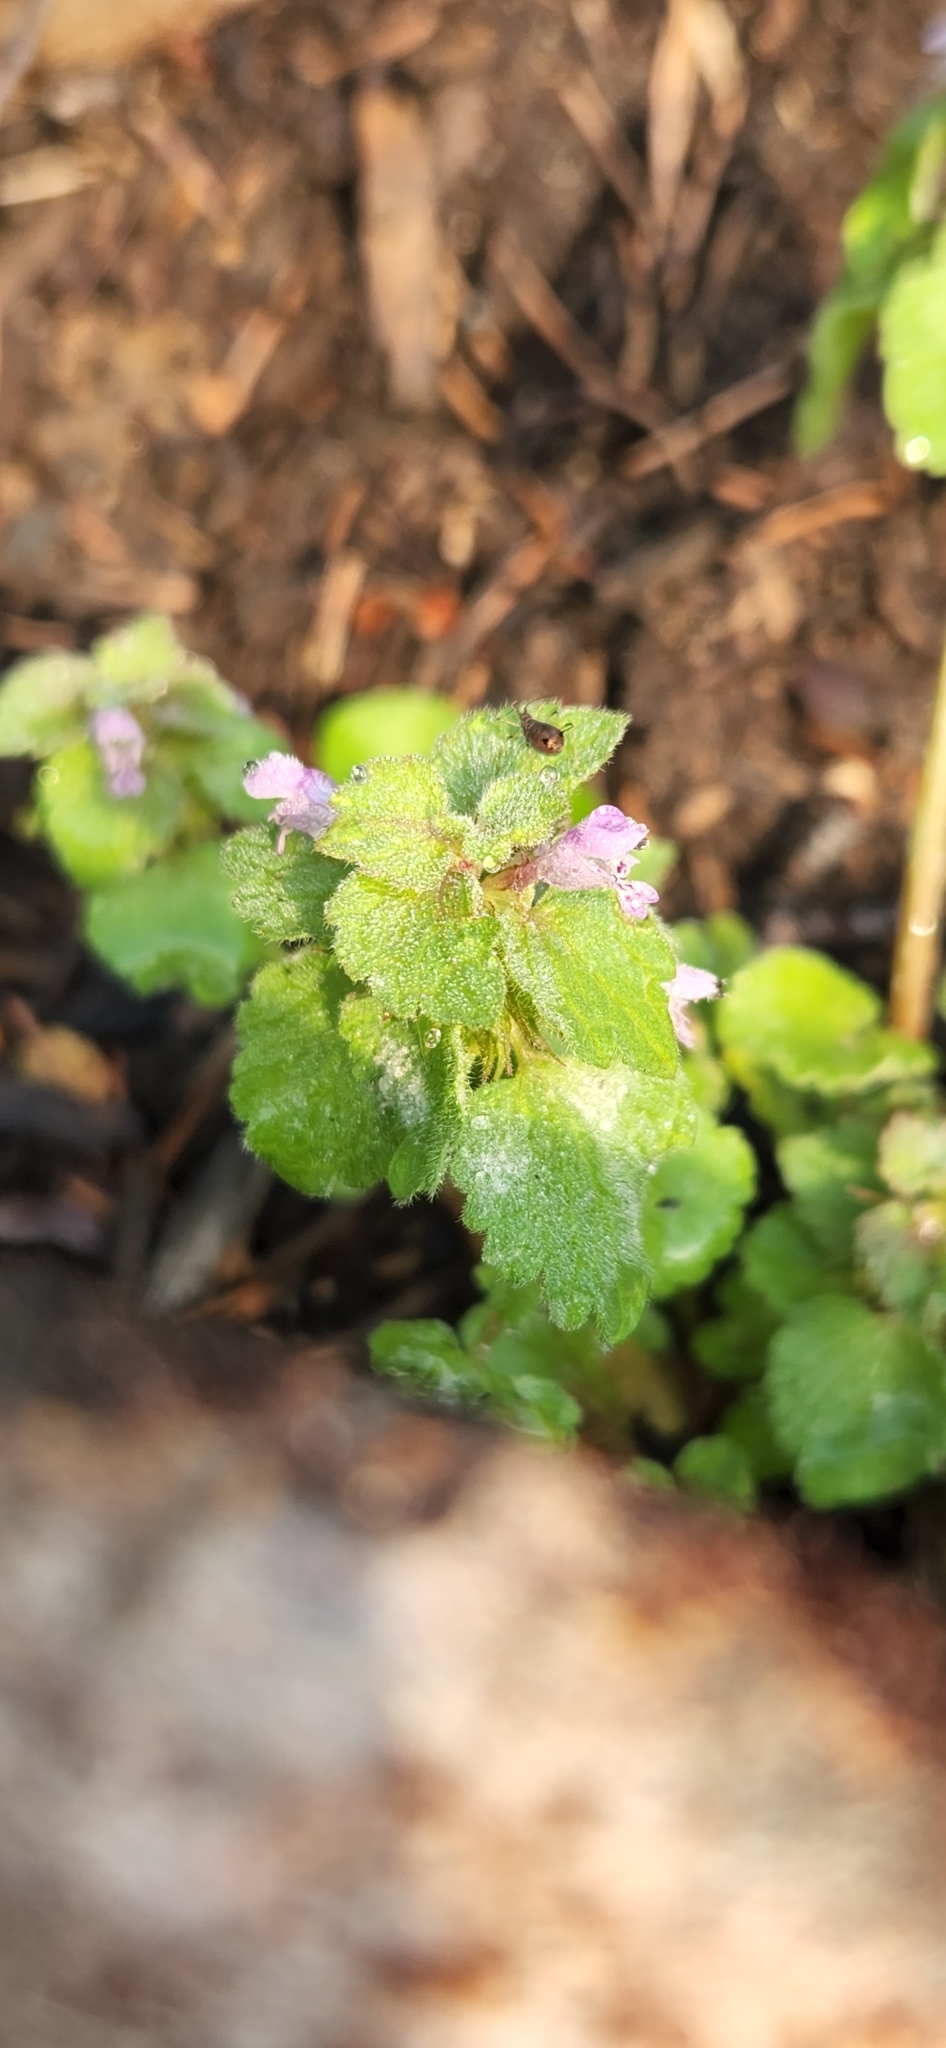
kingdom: Plantae
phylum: Tracheophyta
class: Magnoliopsida
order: Lamiales
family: Lamiaceae
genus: Lamium
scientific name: Lamium purpureum
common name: Red dead-nettle
